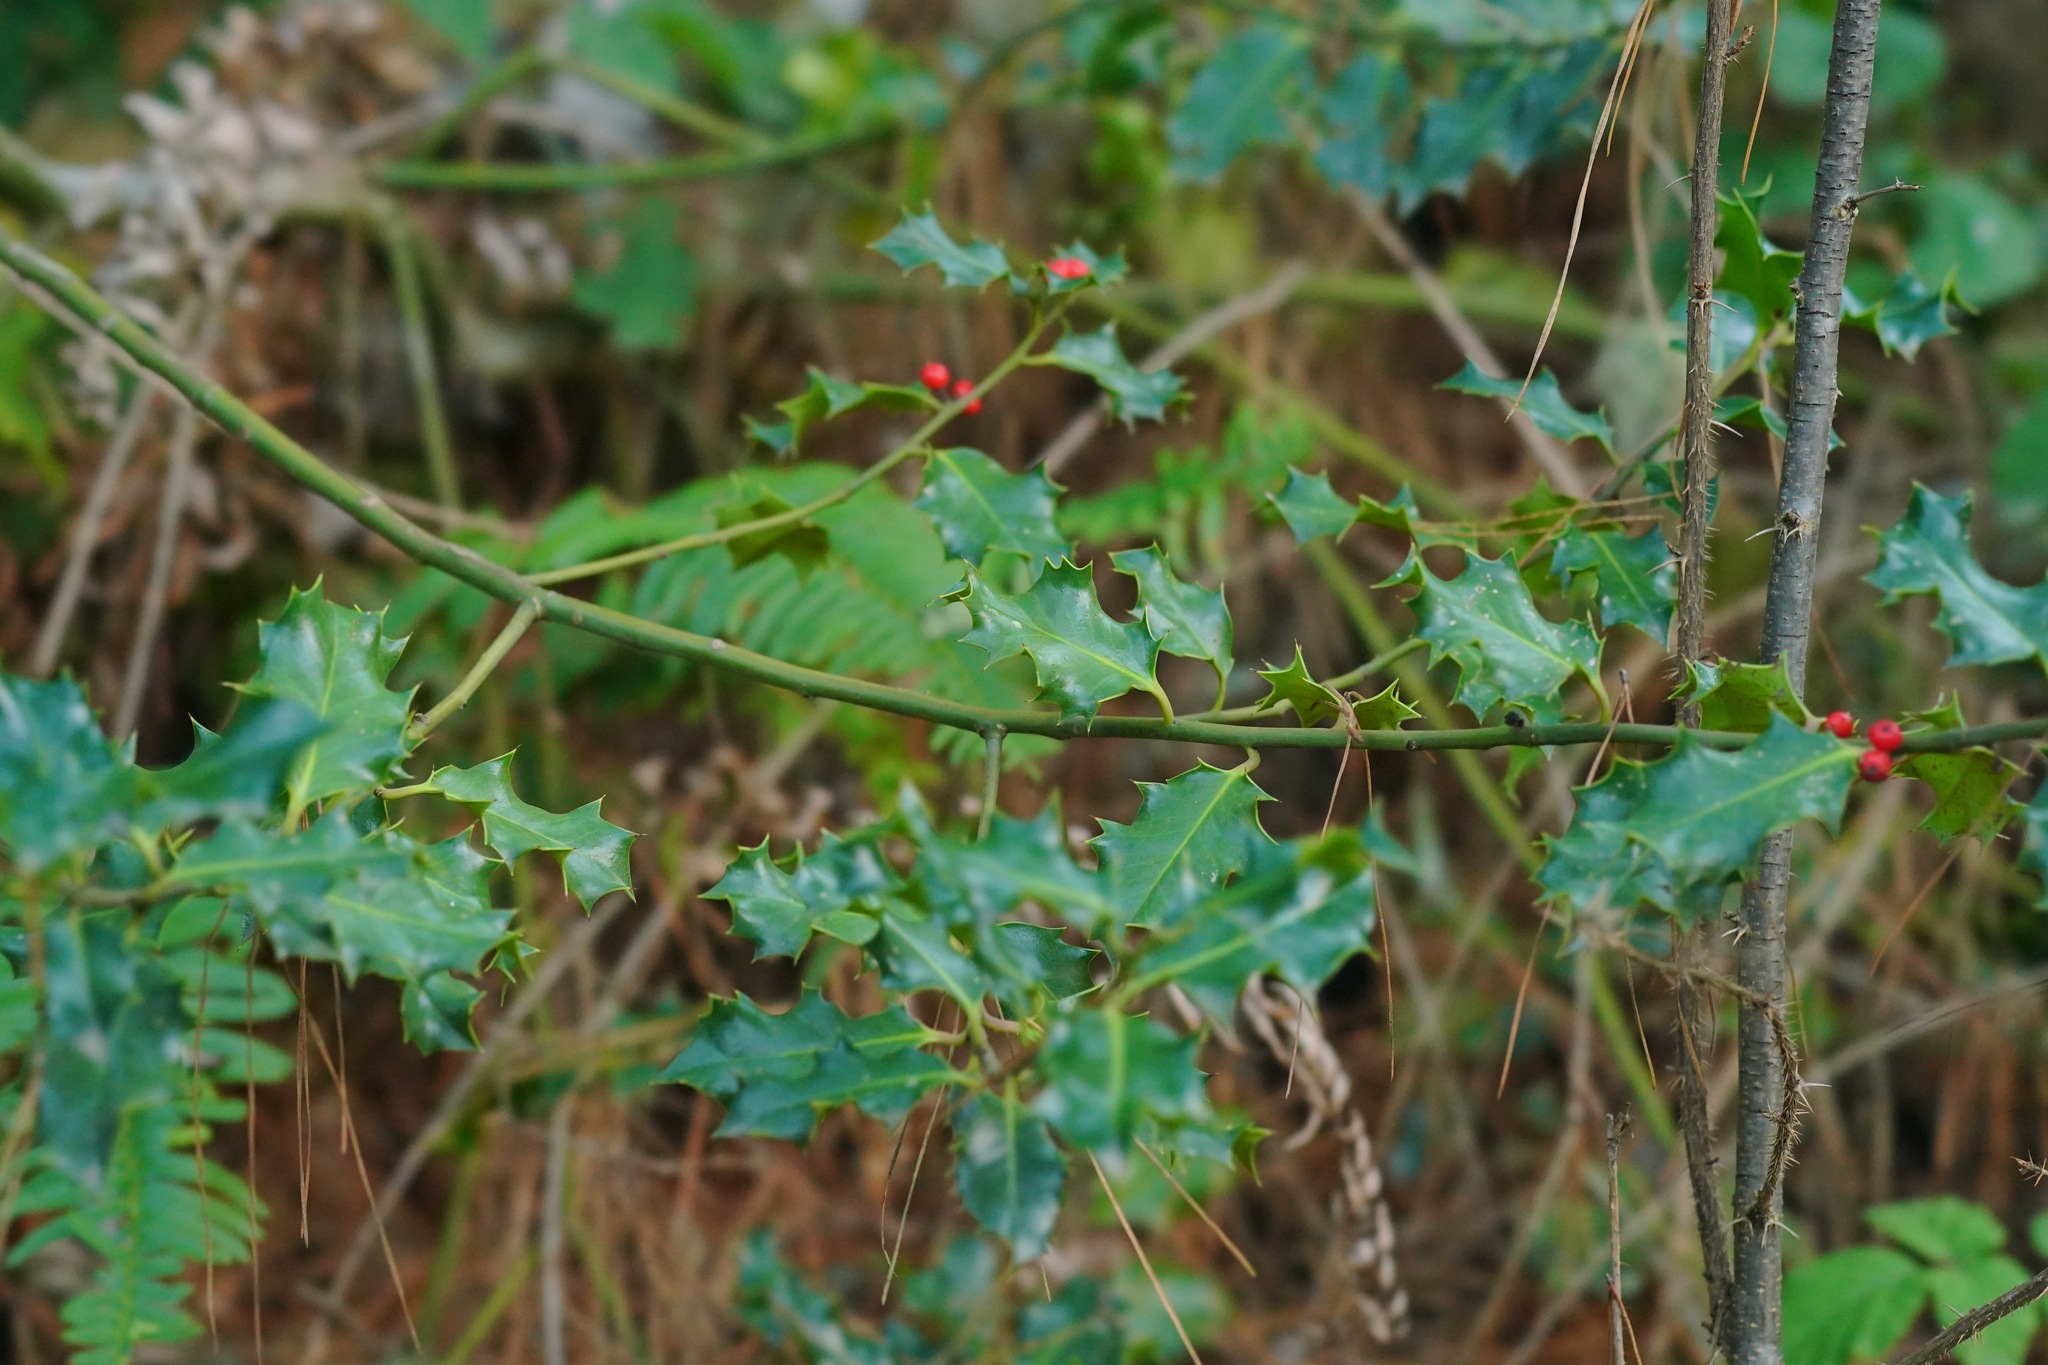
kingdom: Plantae
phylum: Tracheophyta
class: Magnoliopsida
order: Aquifoliales
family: Aquifoliaceae
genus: Ilex
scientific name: Ilex aquifolium
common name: English holly
